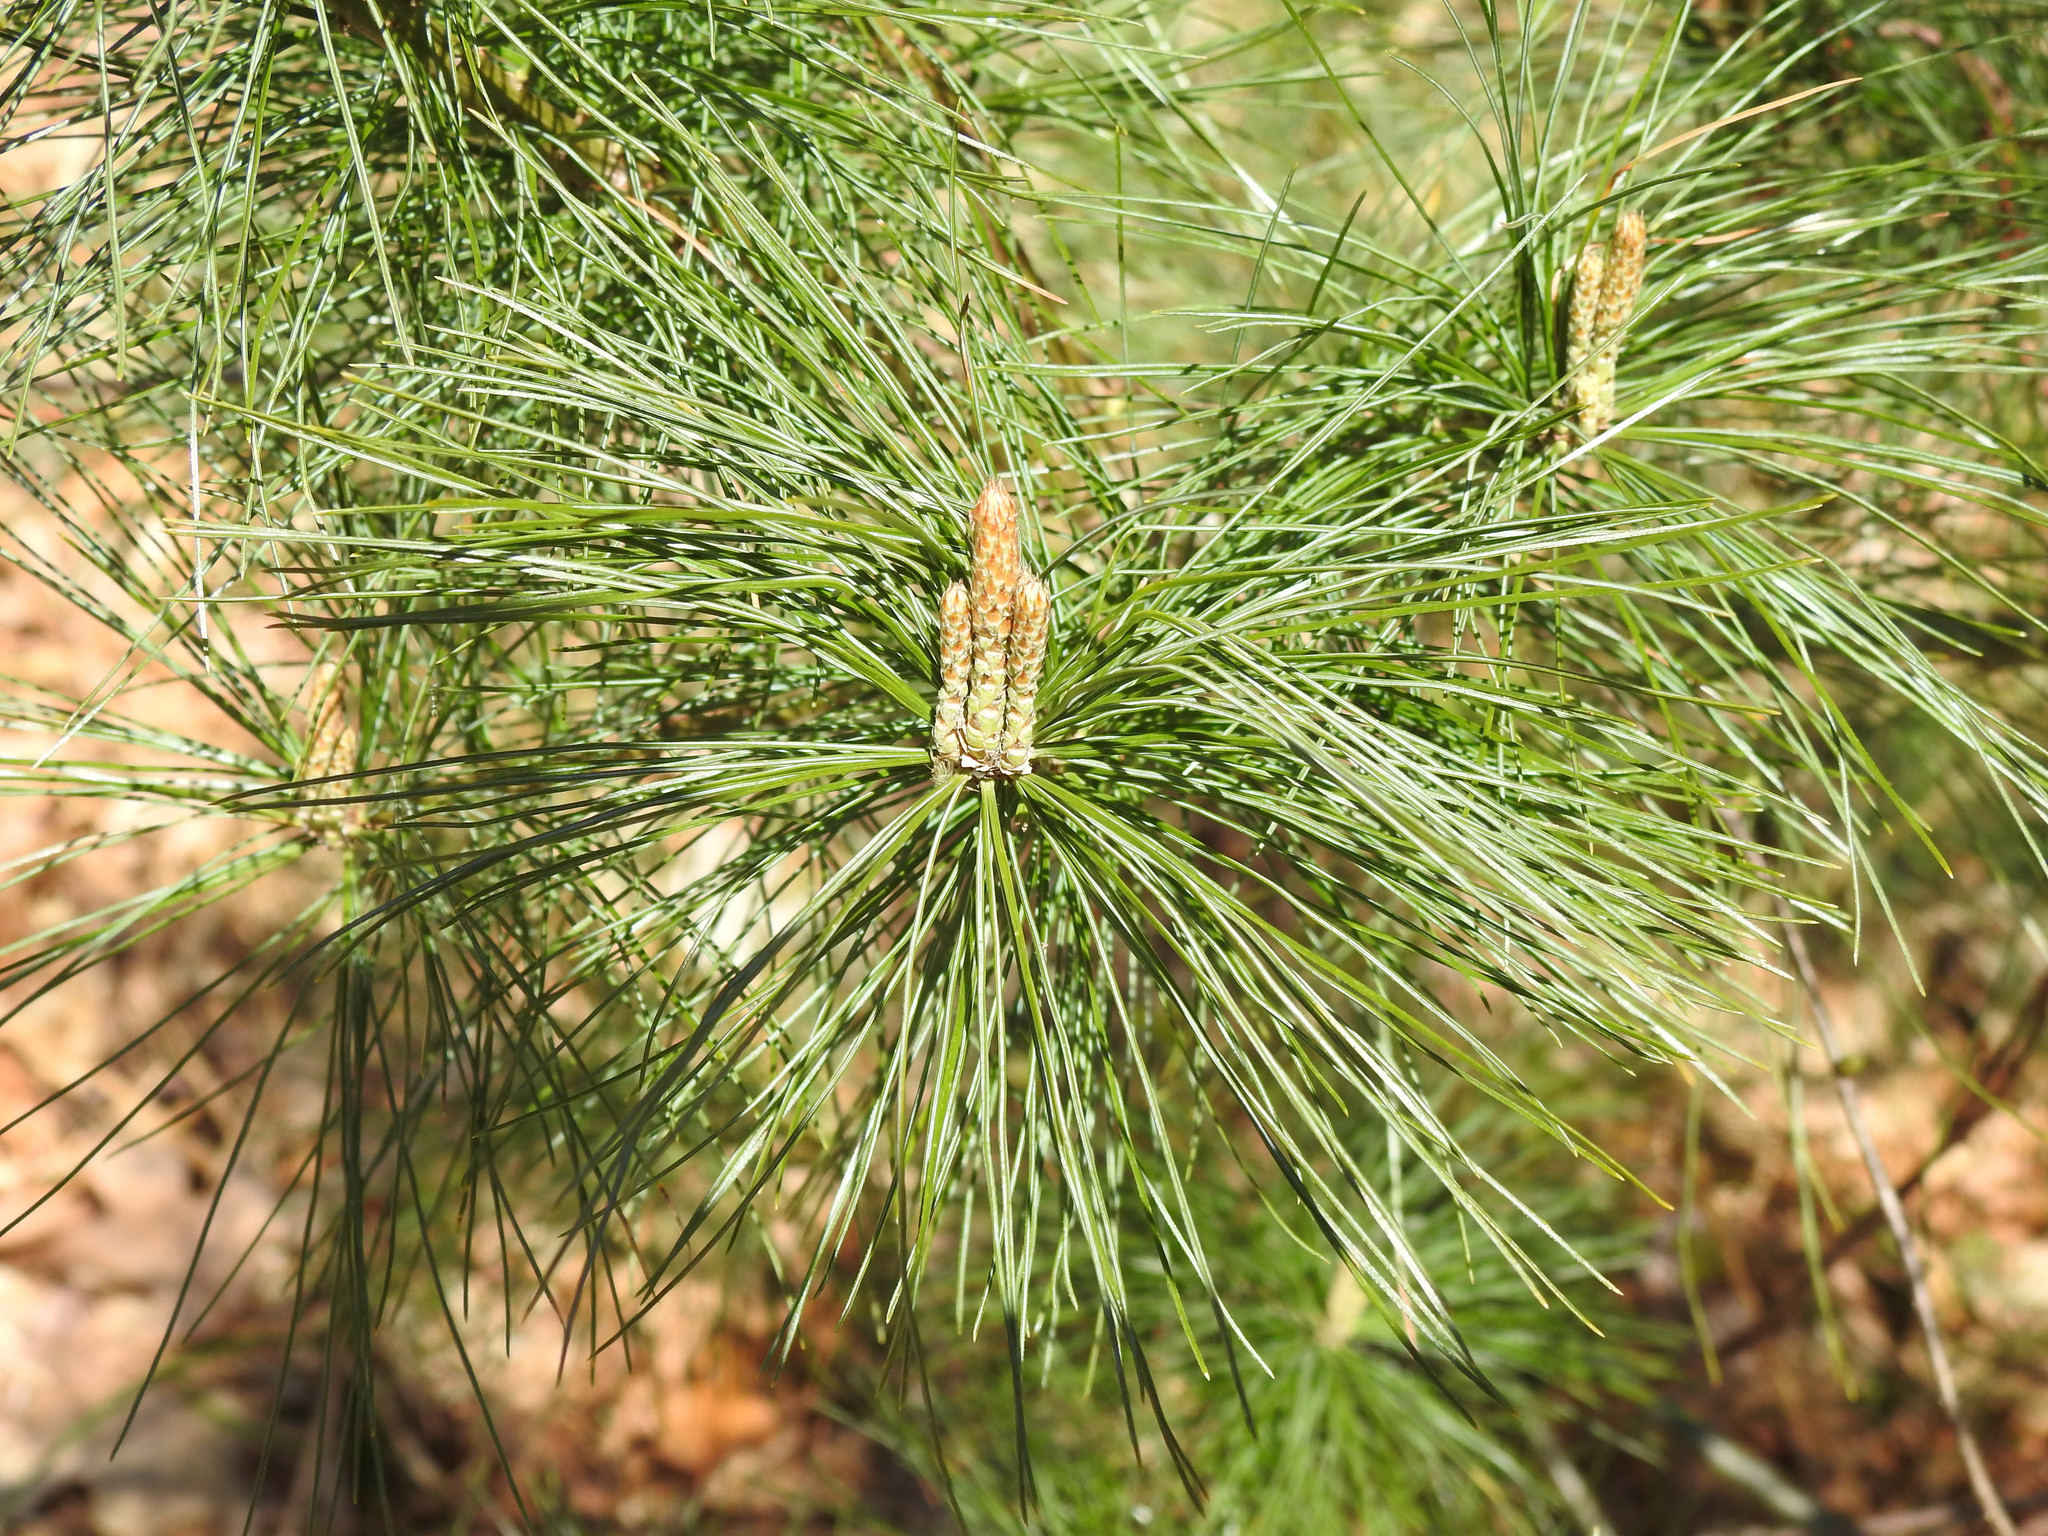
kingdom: Plantae
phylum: Tracheophyta
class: Pinopsida
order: Pinales
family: Pinaceae
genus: Pinus
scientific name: Pinus strobus
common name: Weymouth pine
